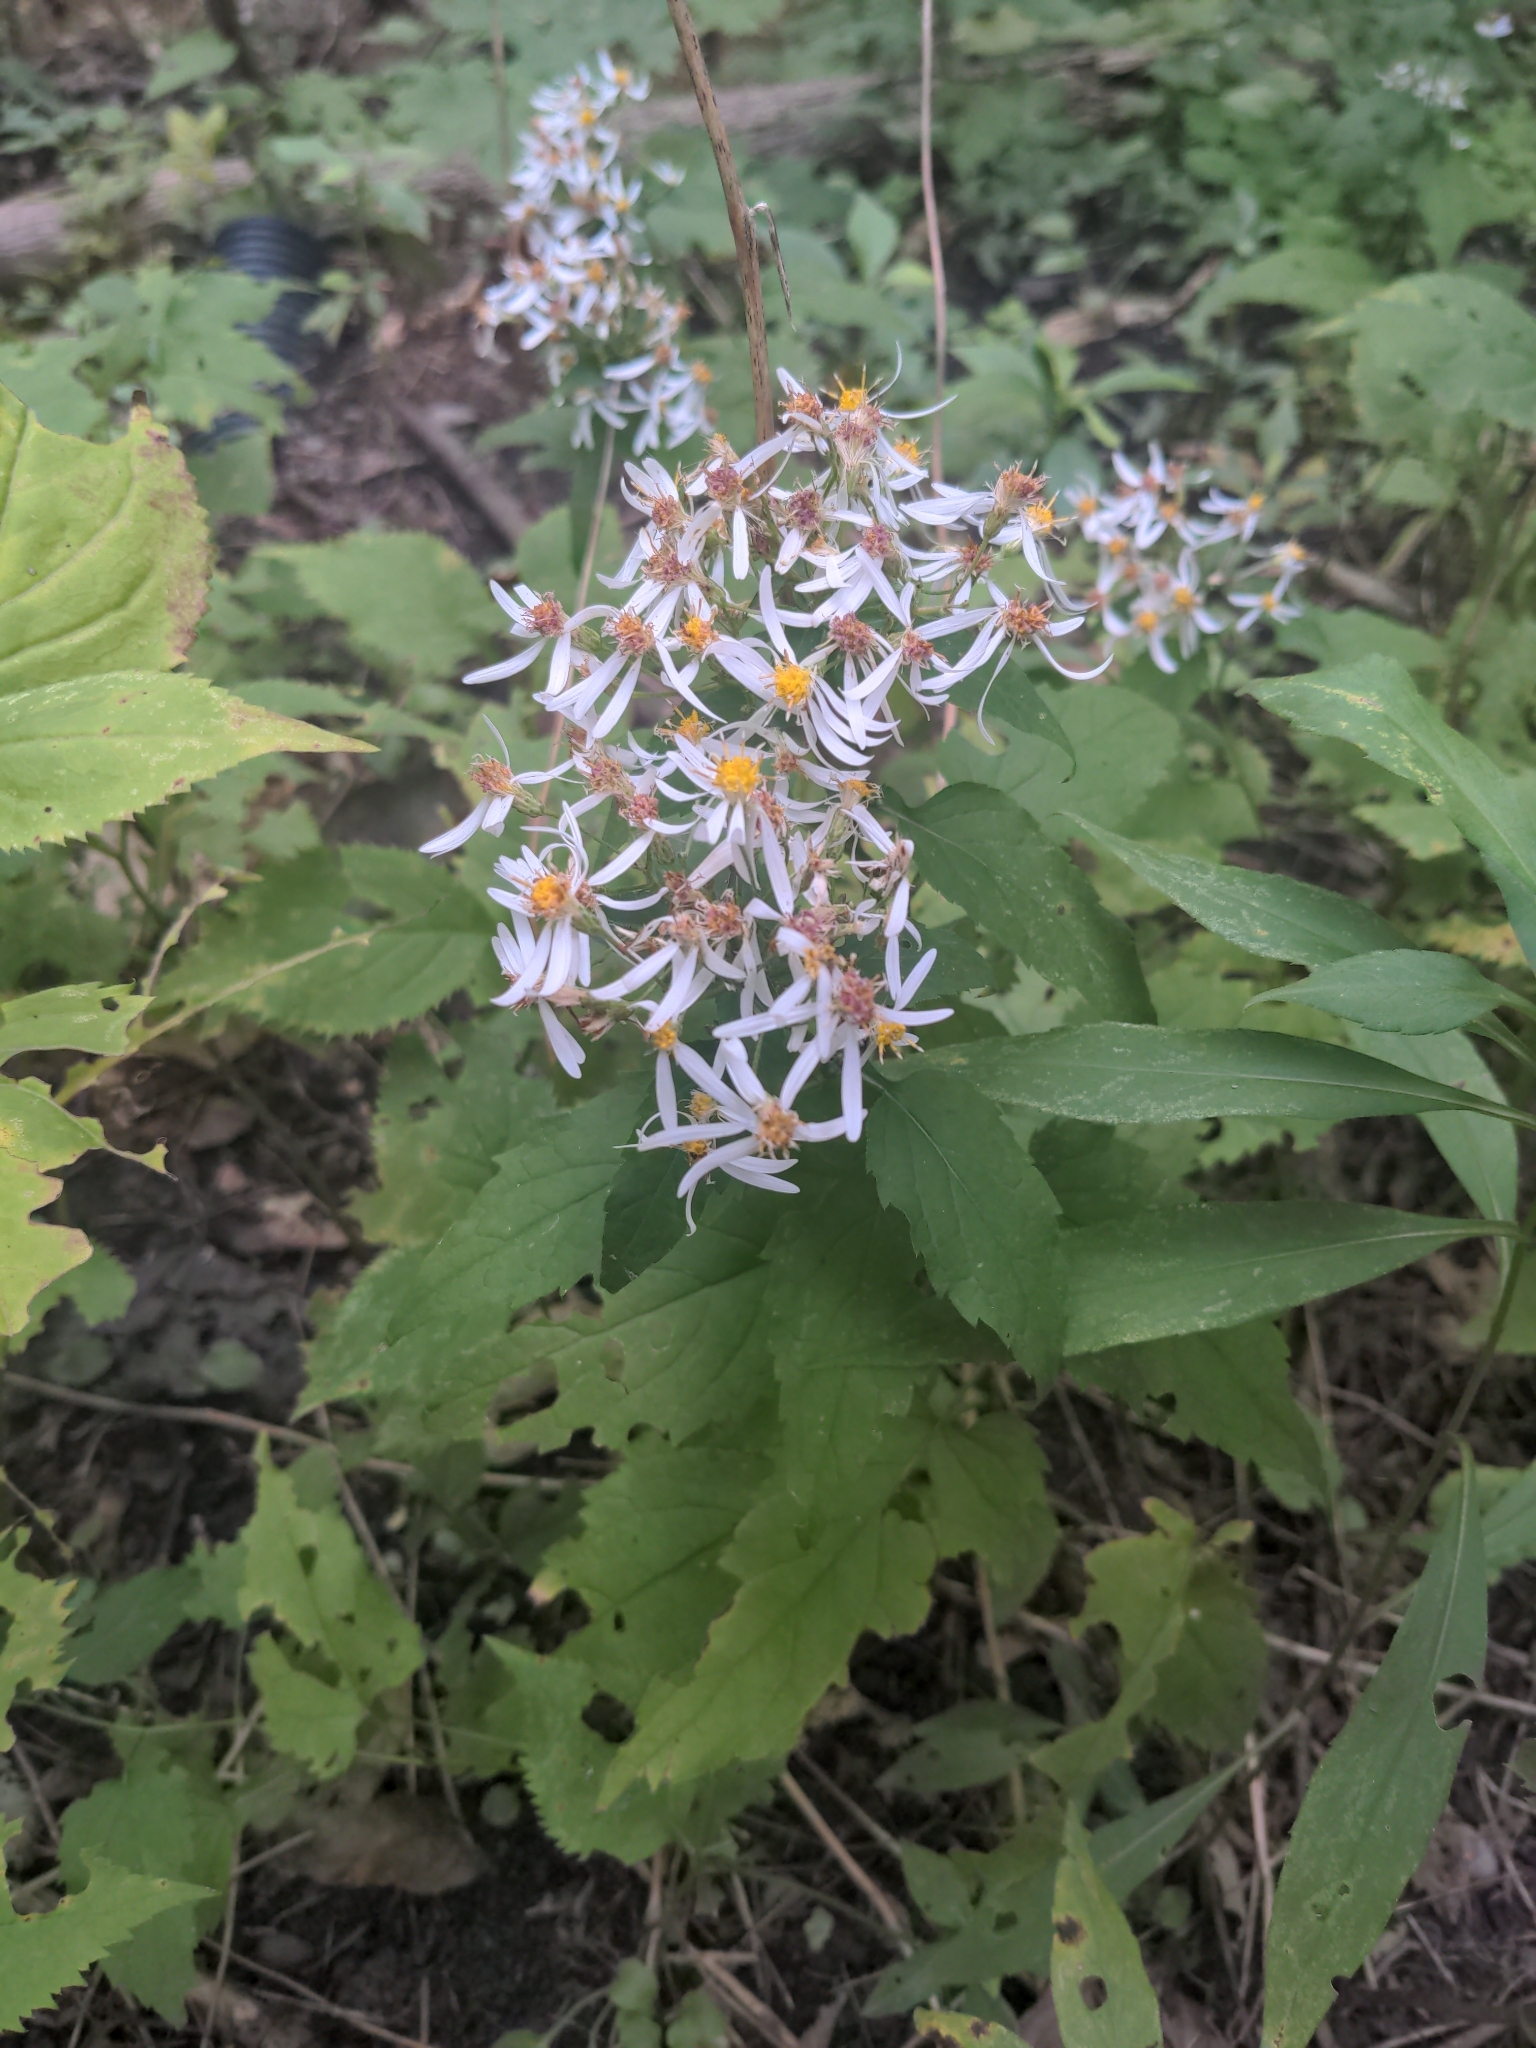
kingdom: Plantae
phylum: Tracheophyta
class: Magnoliopsida
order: Asterales
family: Asteraceae
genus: Eurybia
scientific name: Eurybia divaricata
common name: White wood aster
